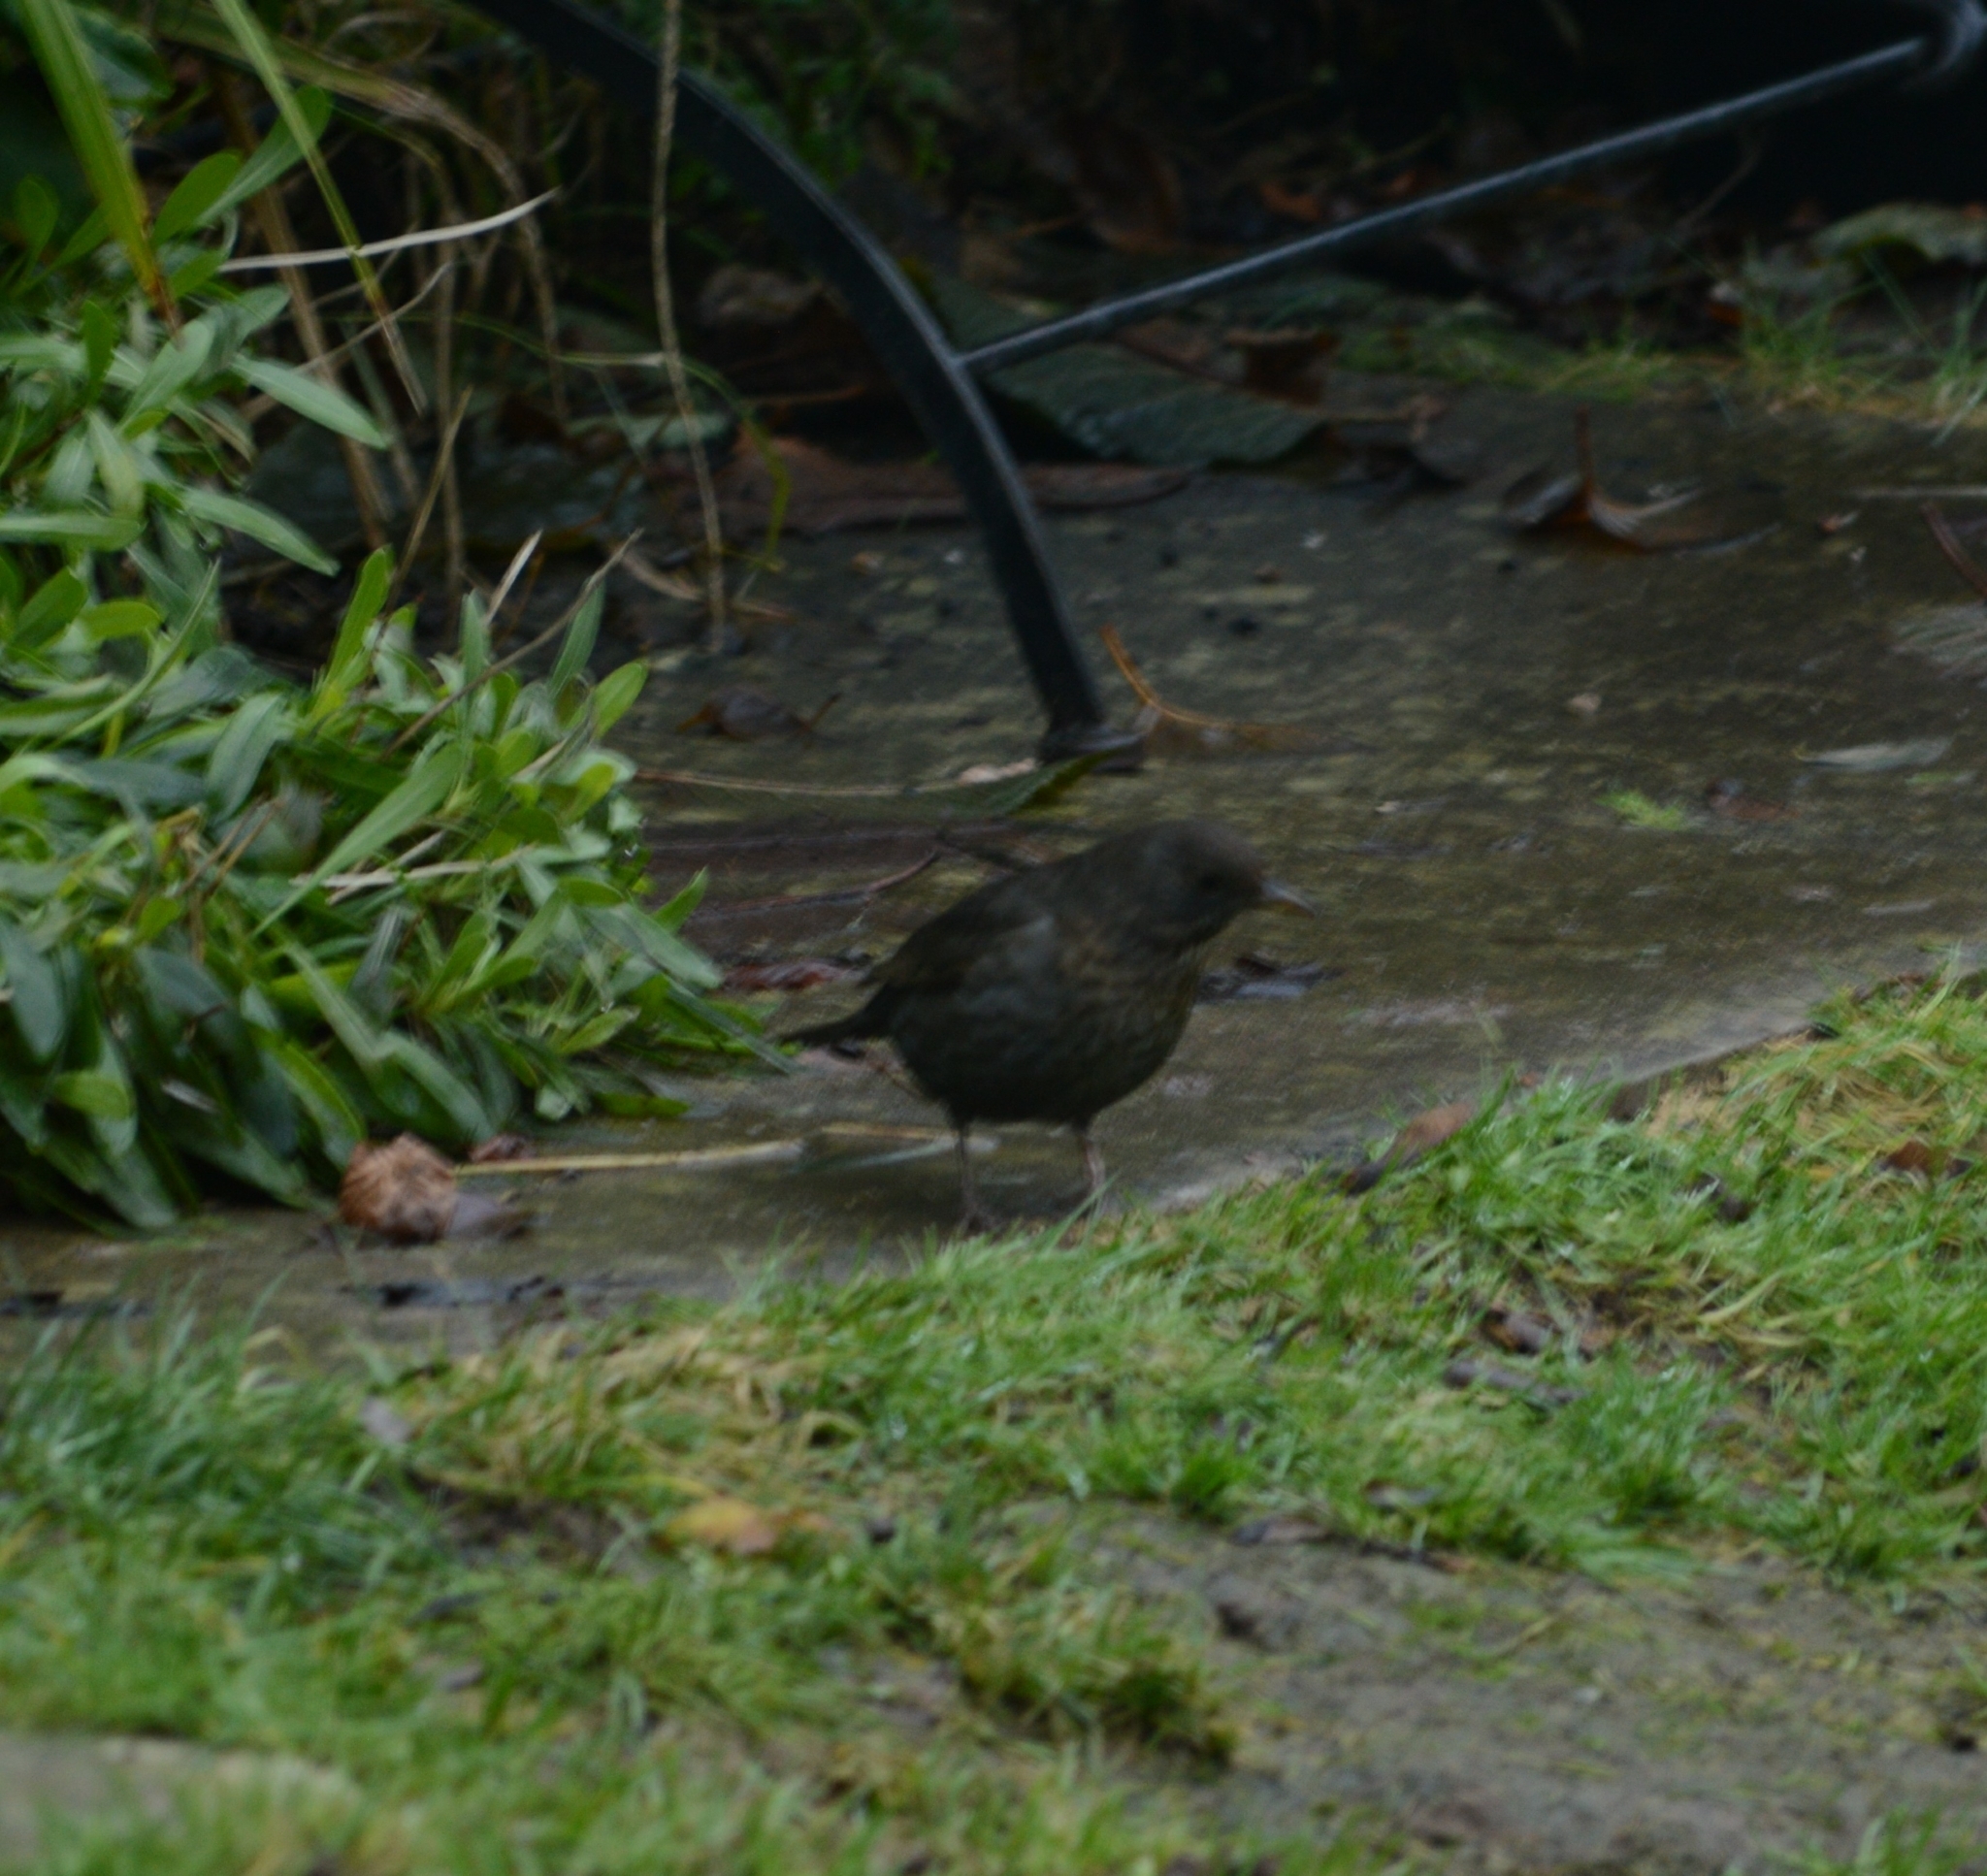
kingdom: Animalia
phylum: Chordata
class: Aves
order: Passeriformes
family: Turdidae
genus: Turdus
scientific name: Turdus merula
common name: Common blackbird
